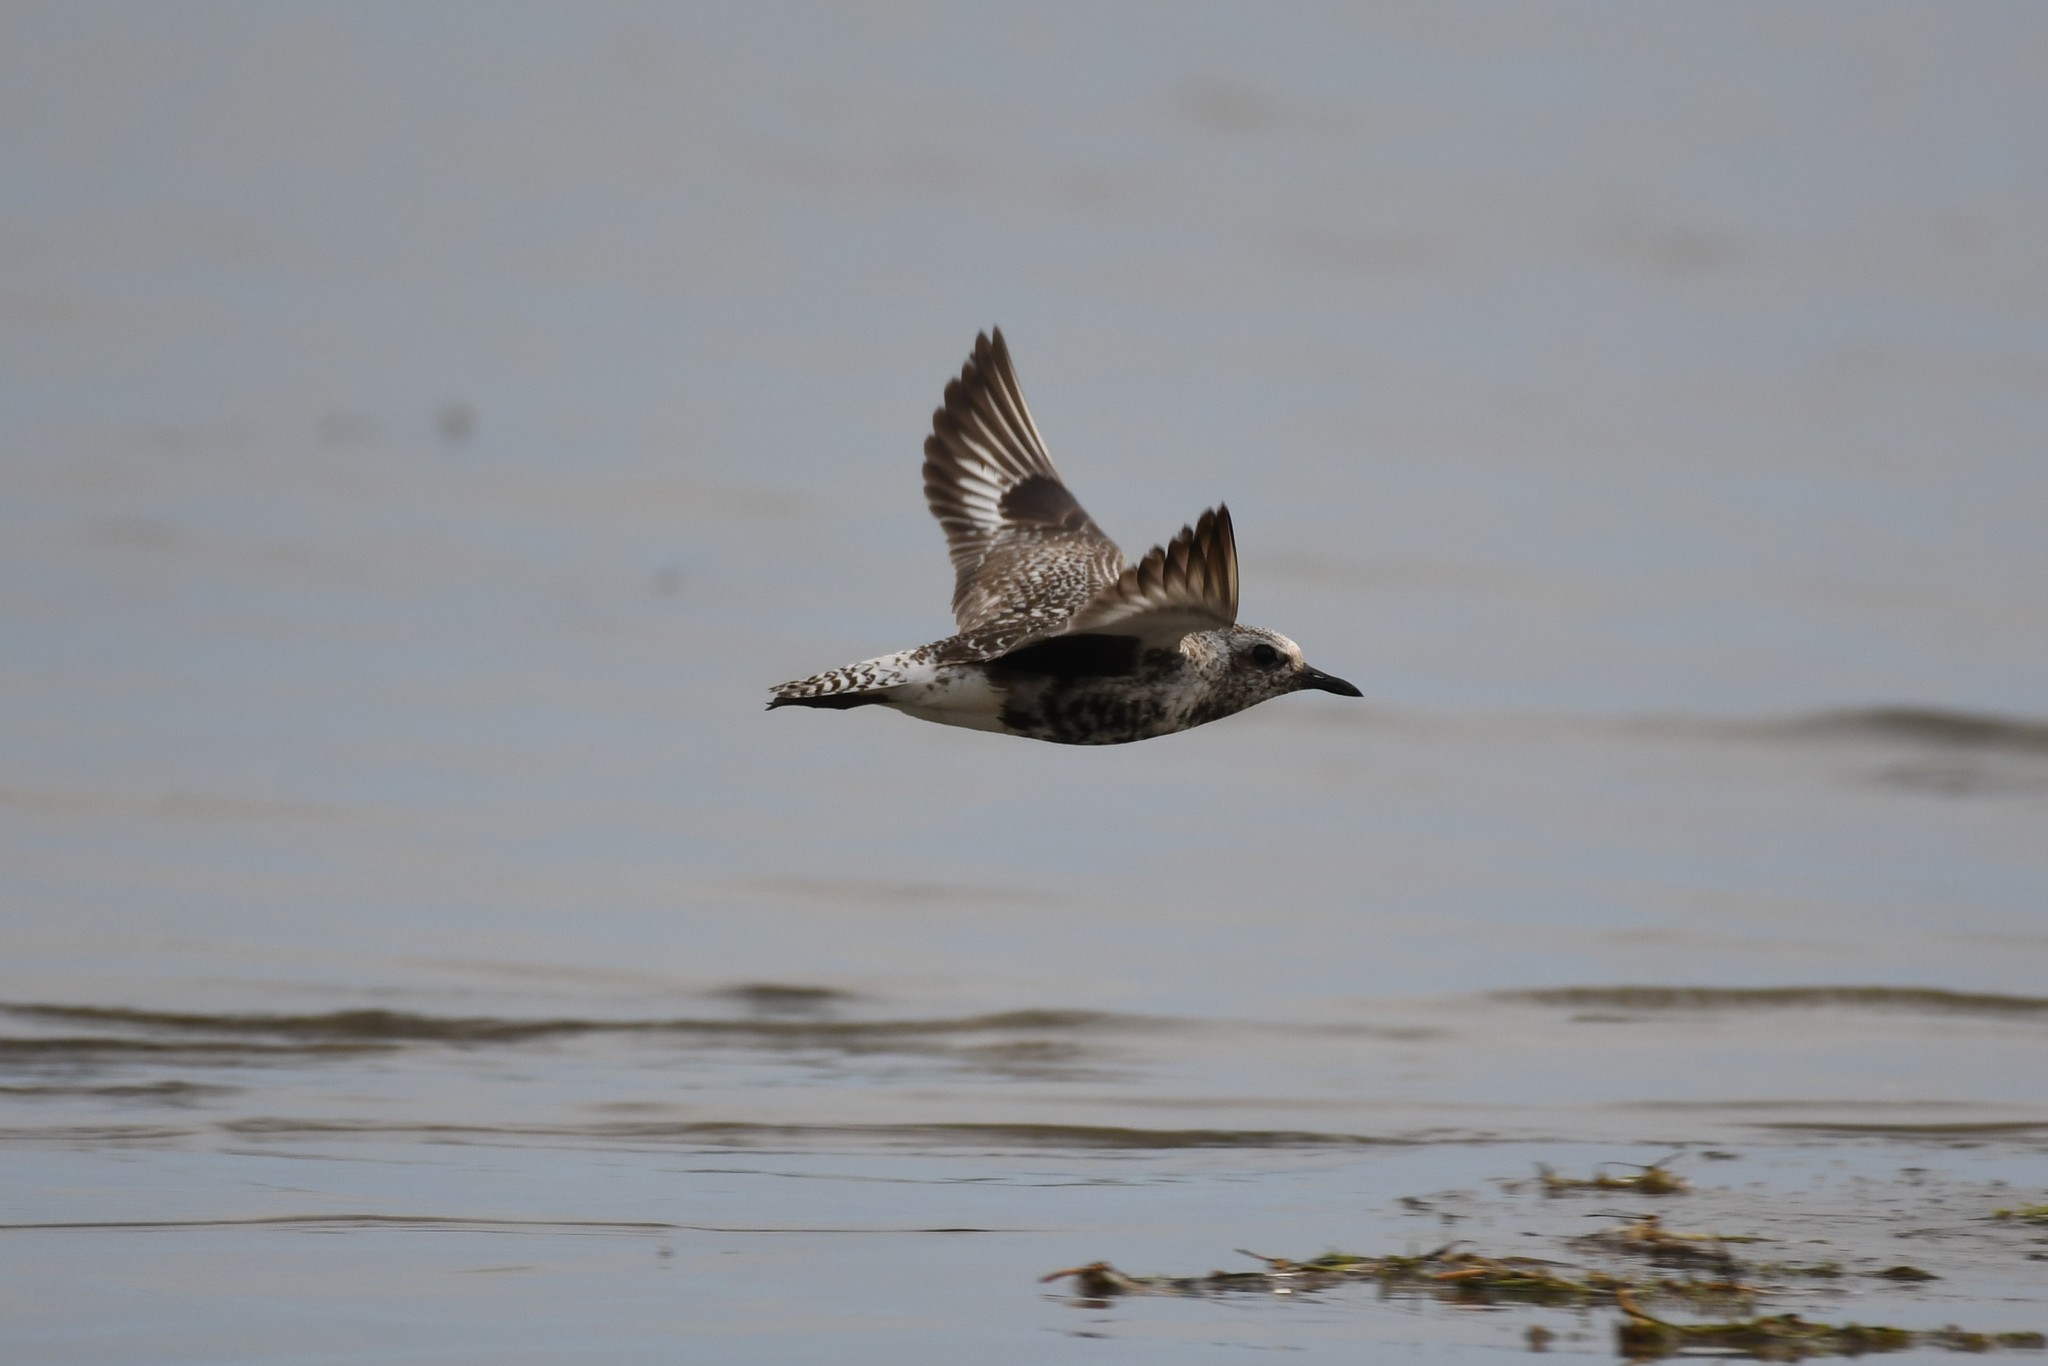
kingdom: Animalia
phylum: Chordata
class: Aves
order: Charadriiformes
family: Charadriidae
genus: Pluvialis
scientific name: Pluvialis squatarola
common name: Grey plover
